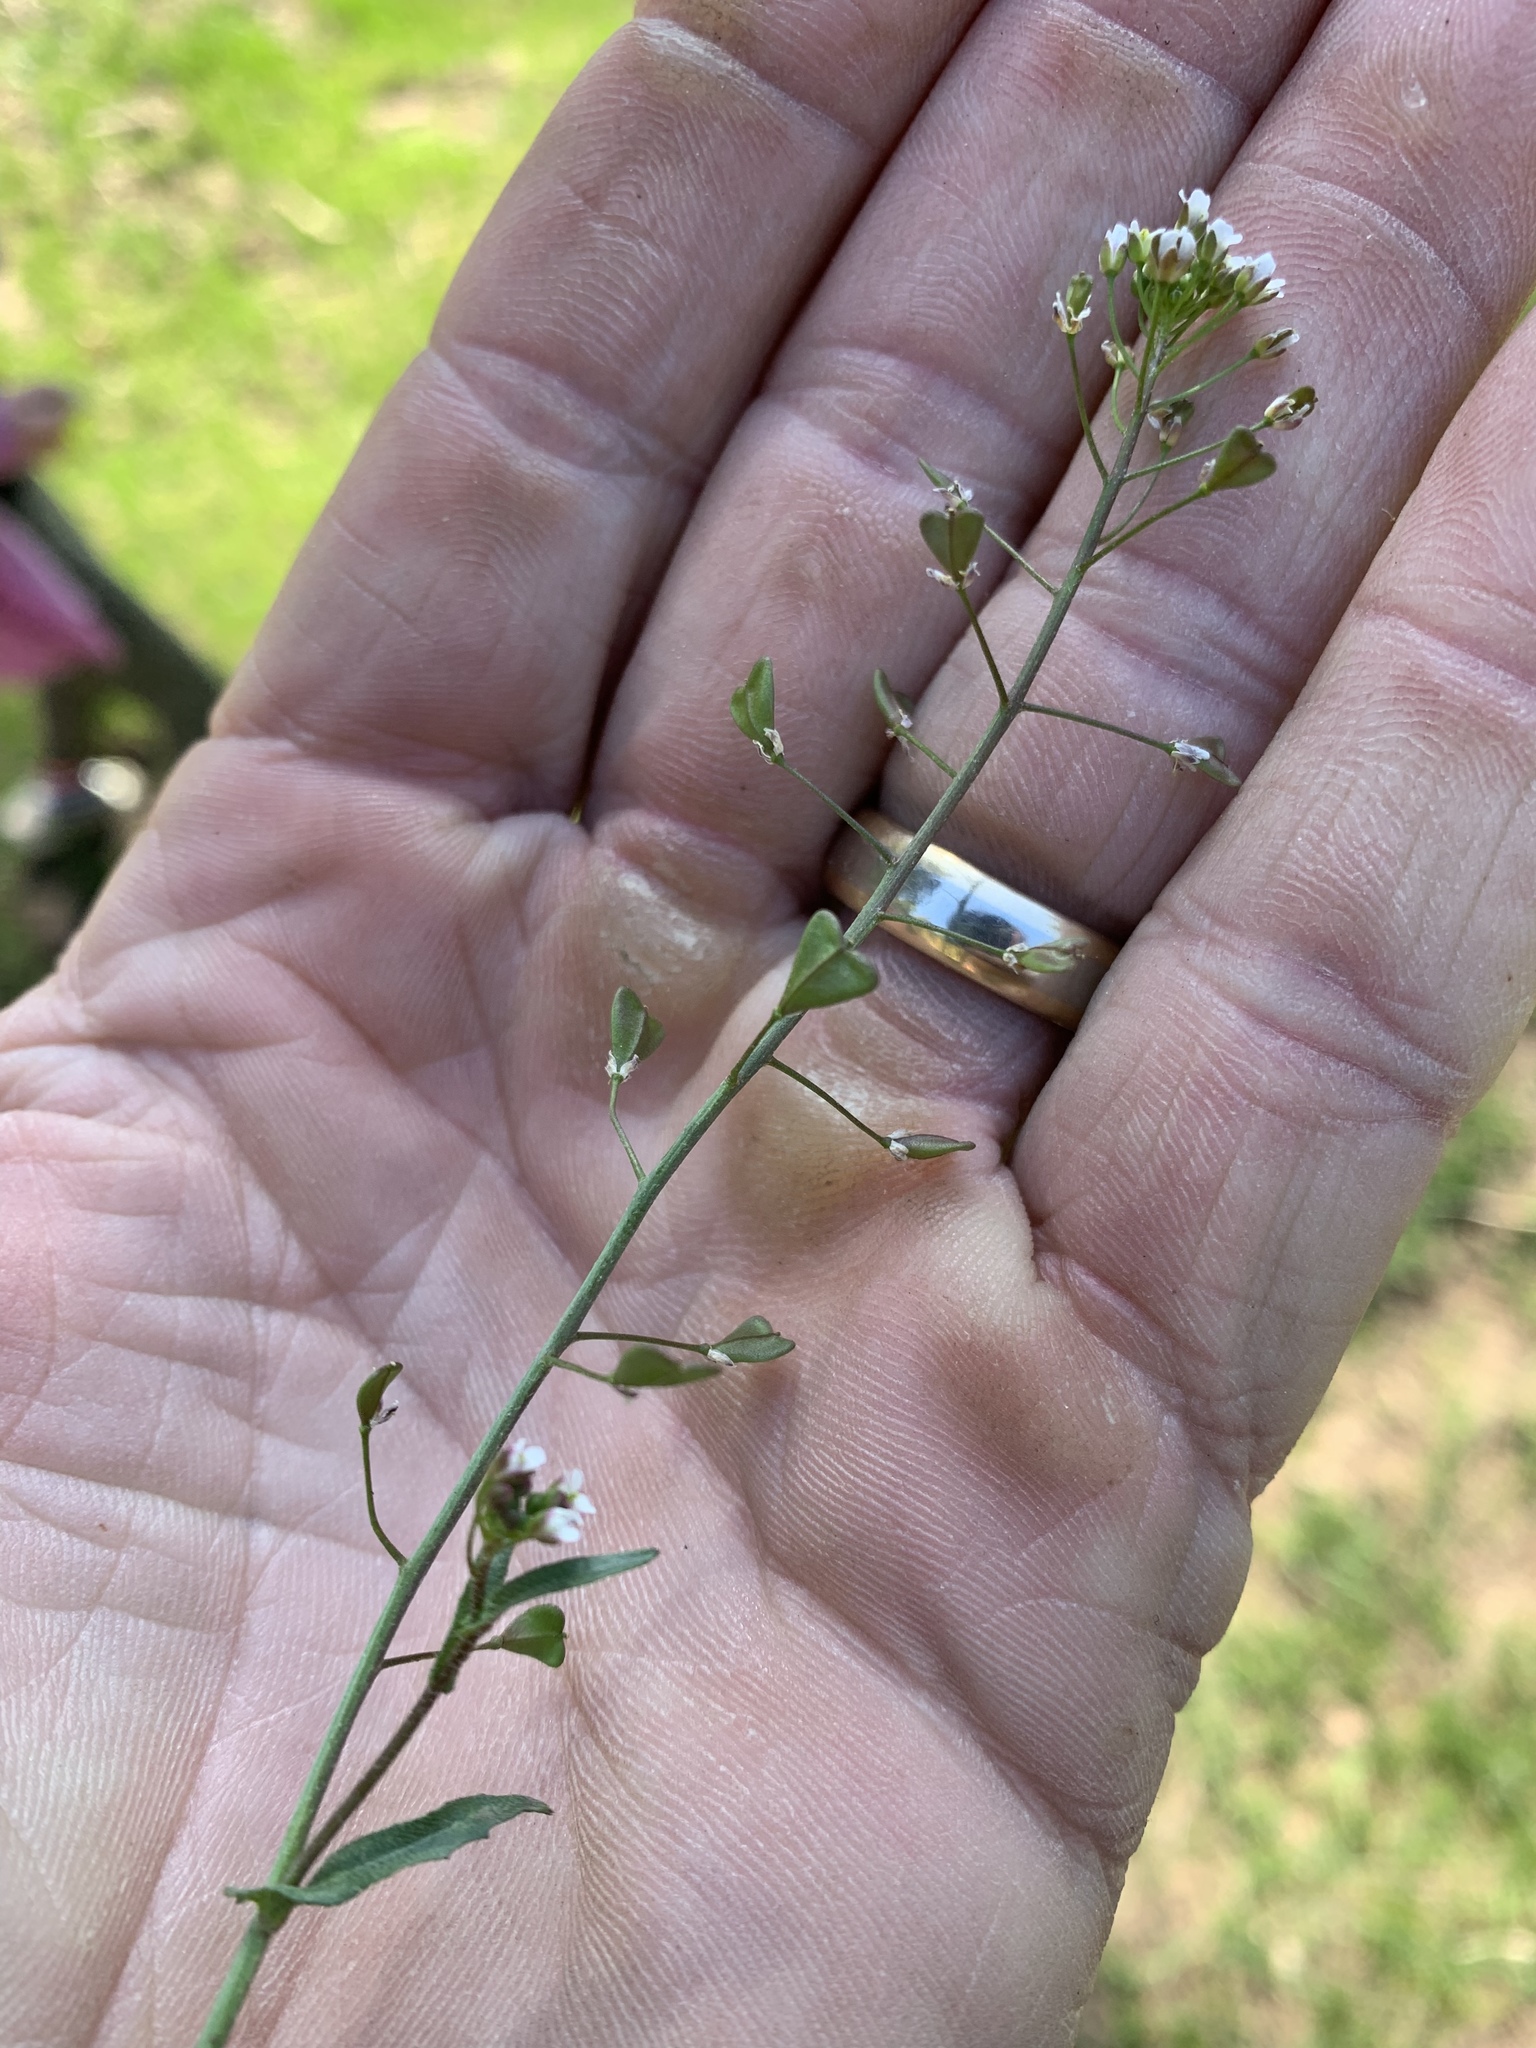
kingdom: Plantae
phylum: Tracheophyta
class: Magnoliopsida
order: Brassicales
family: Brassicaceae
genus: Capsella
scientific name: Capsella bursa-pastoris
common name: Shepherd's purse
